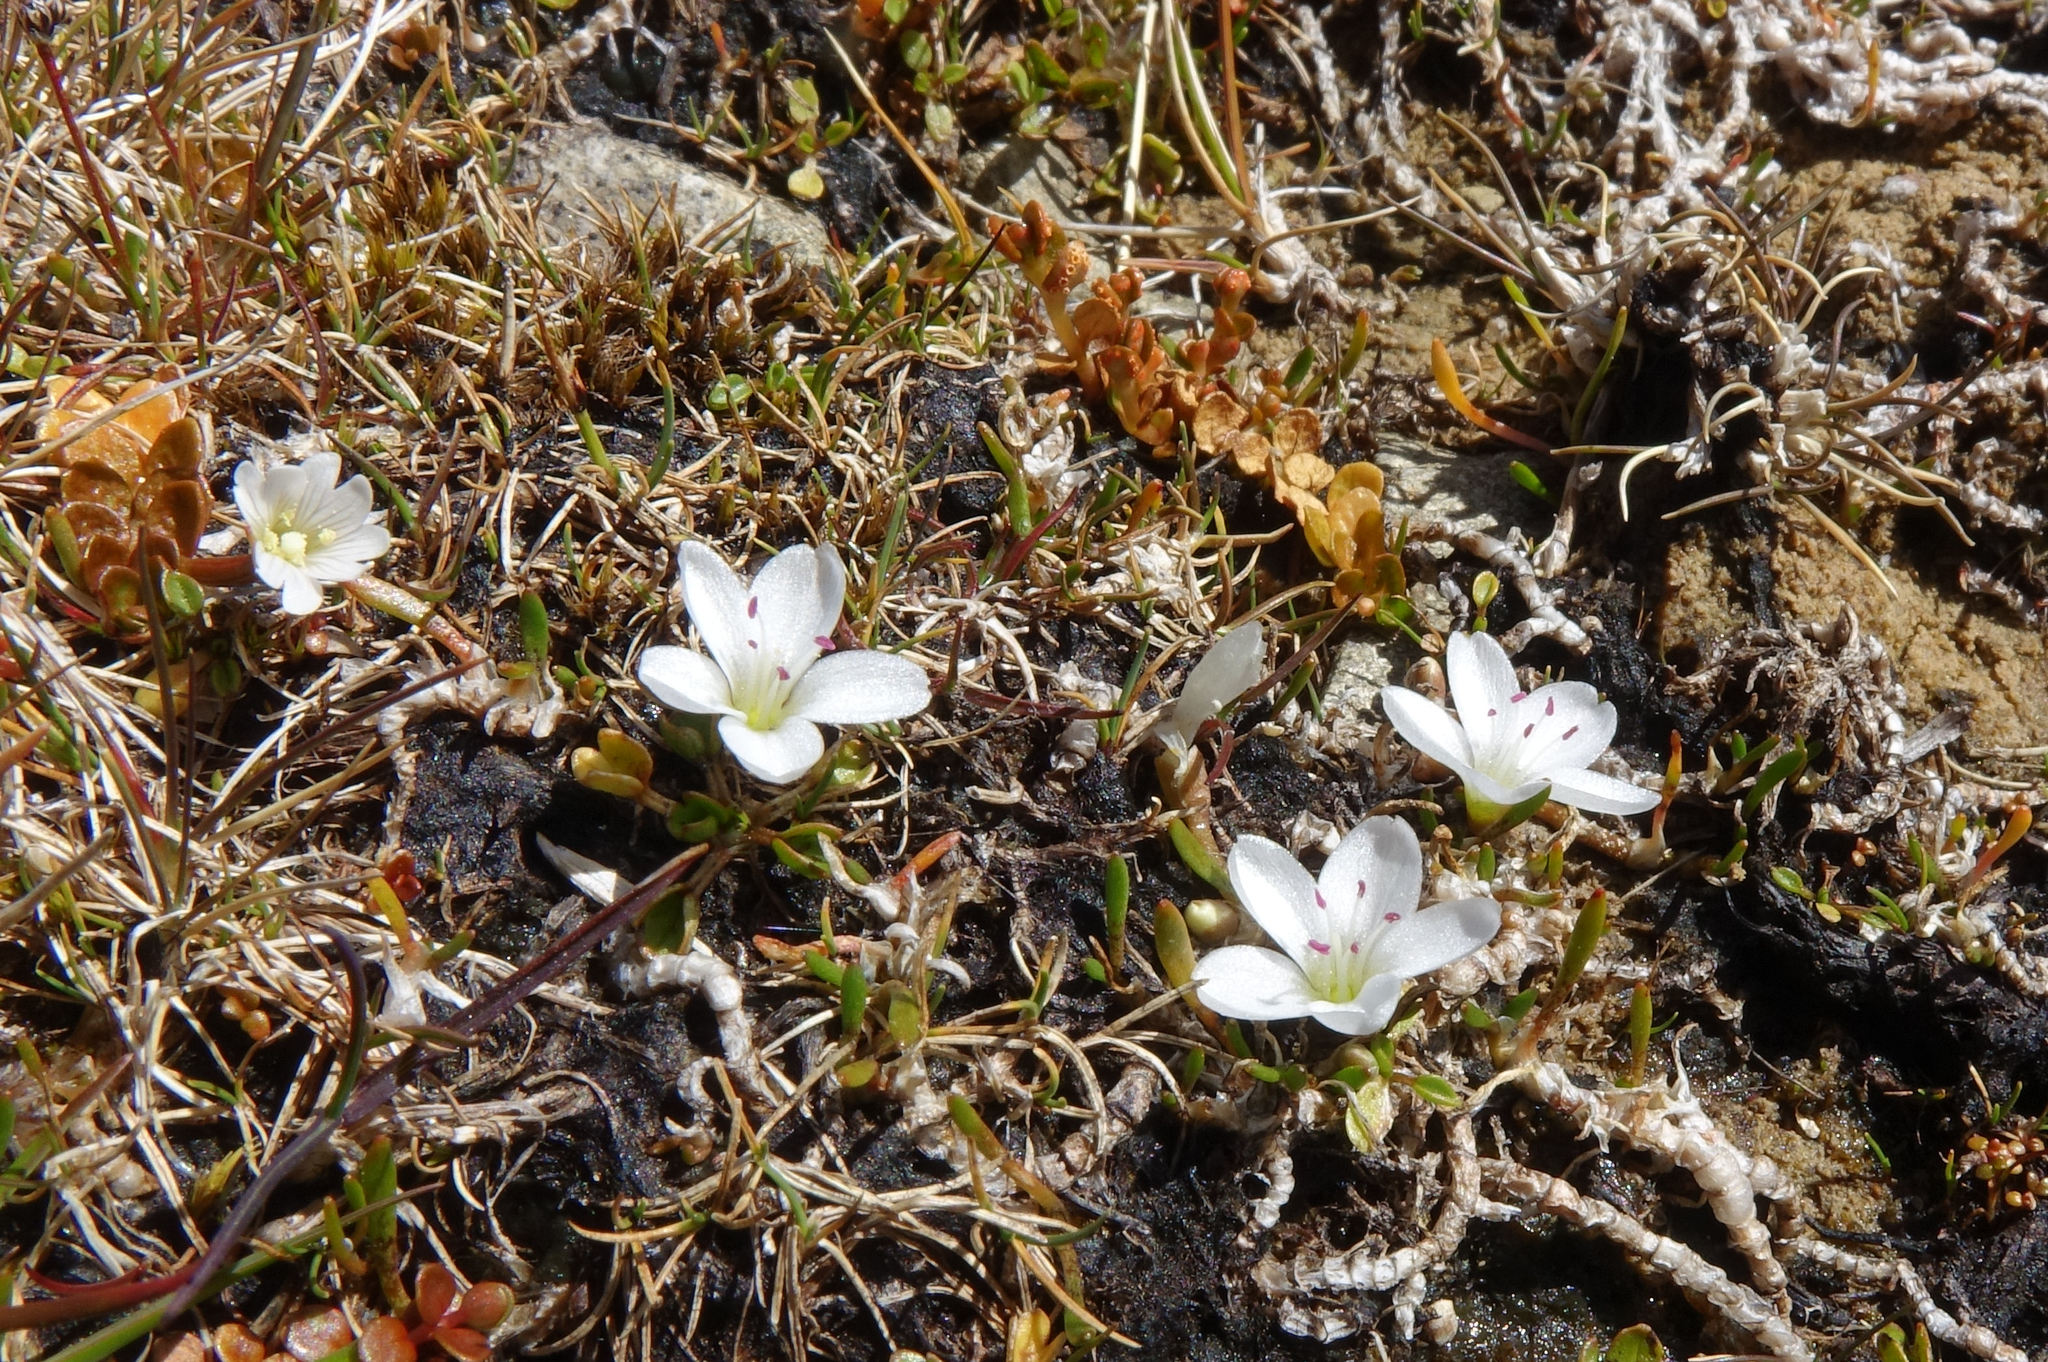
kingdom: Plantae
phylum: Tracheophyta
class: Magnoliopsida
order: Caryophyllales
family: Montiaceae
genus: Montia
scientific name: Montia sessiliflora
